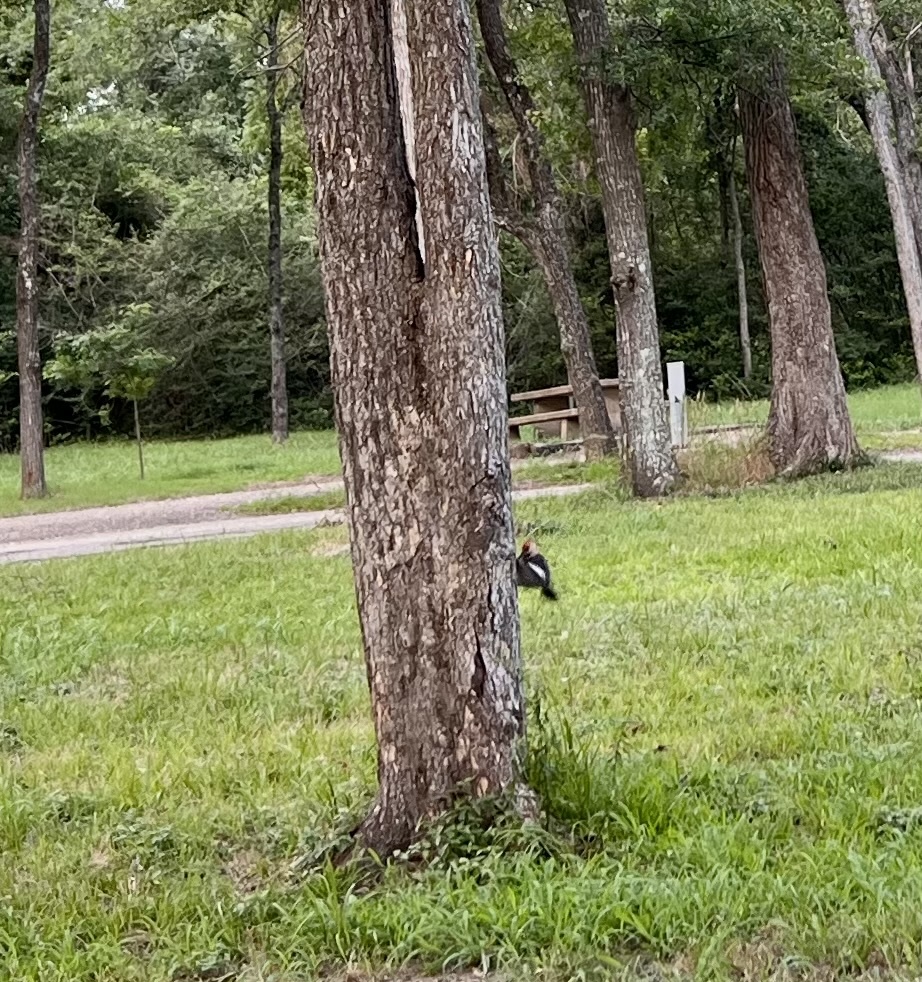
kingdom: Animalia
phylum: Chordata
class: Aves
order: Piciformes
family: Picidae
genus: Melanerpes
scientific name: Melanerpes carolinus
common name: Red-bellied woodpecker
